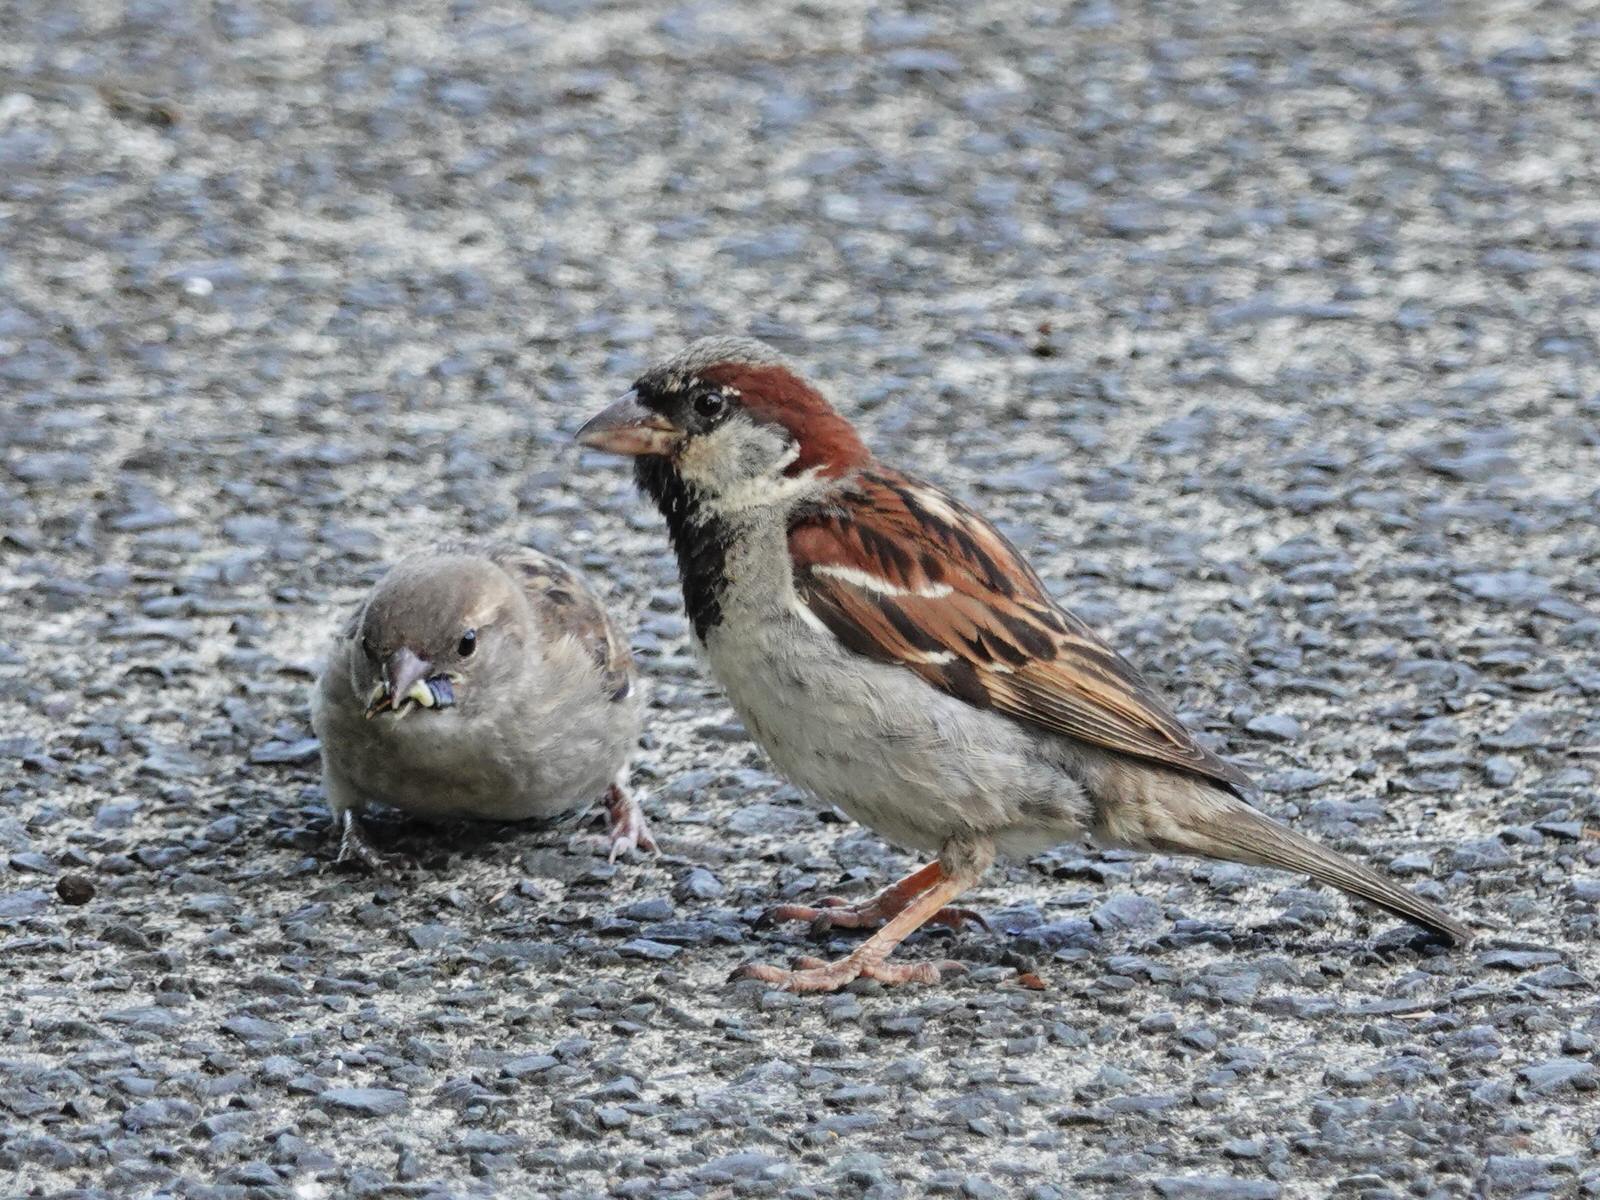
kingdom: Animalia
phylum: Chordata
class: Aves
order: Passeriformes
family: Passeridae
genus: Passer
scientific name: Passer domesticus
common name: House sparrow
